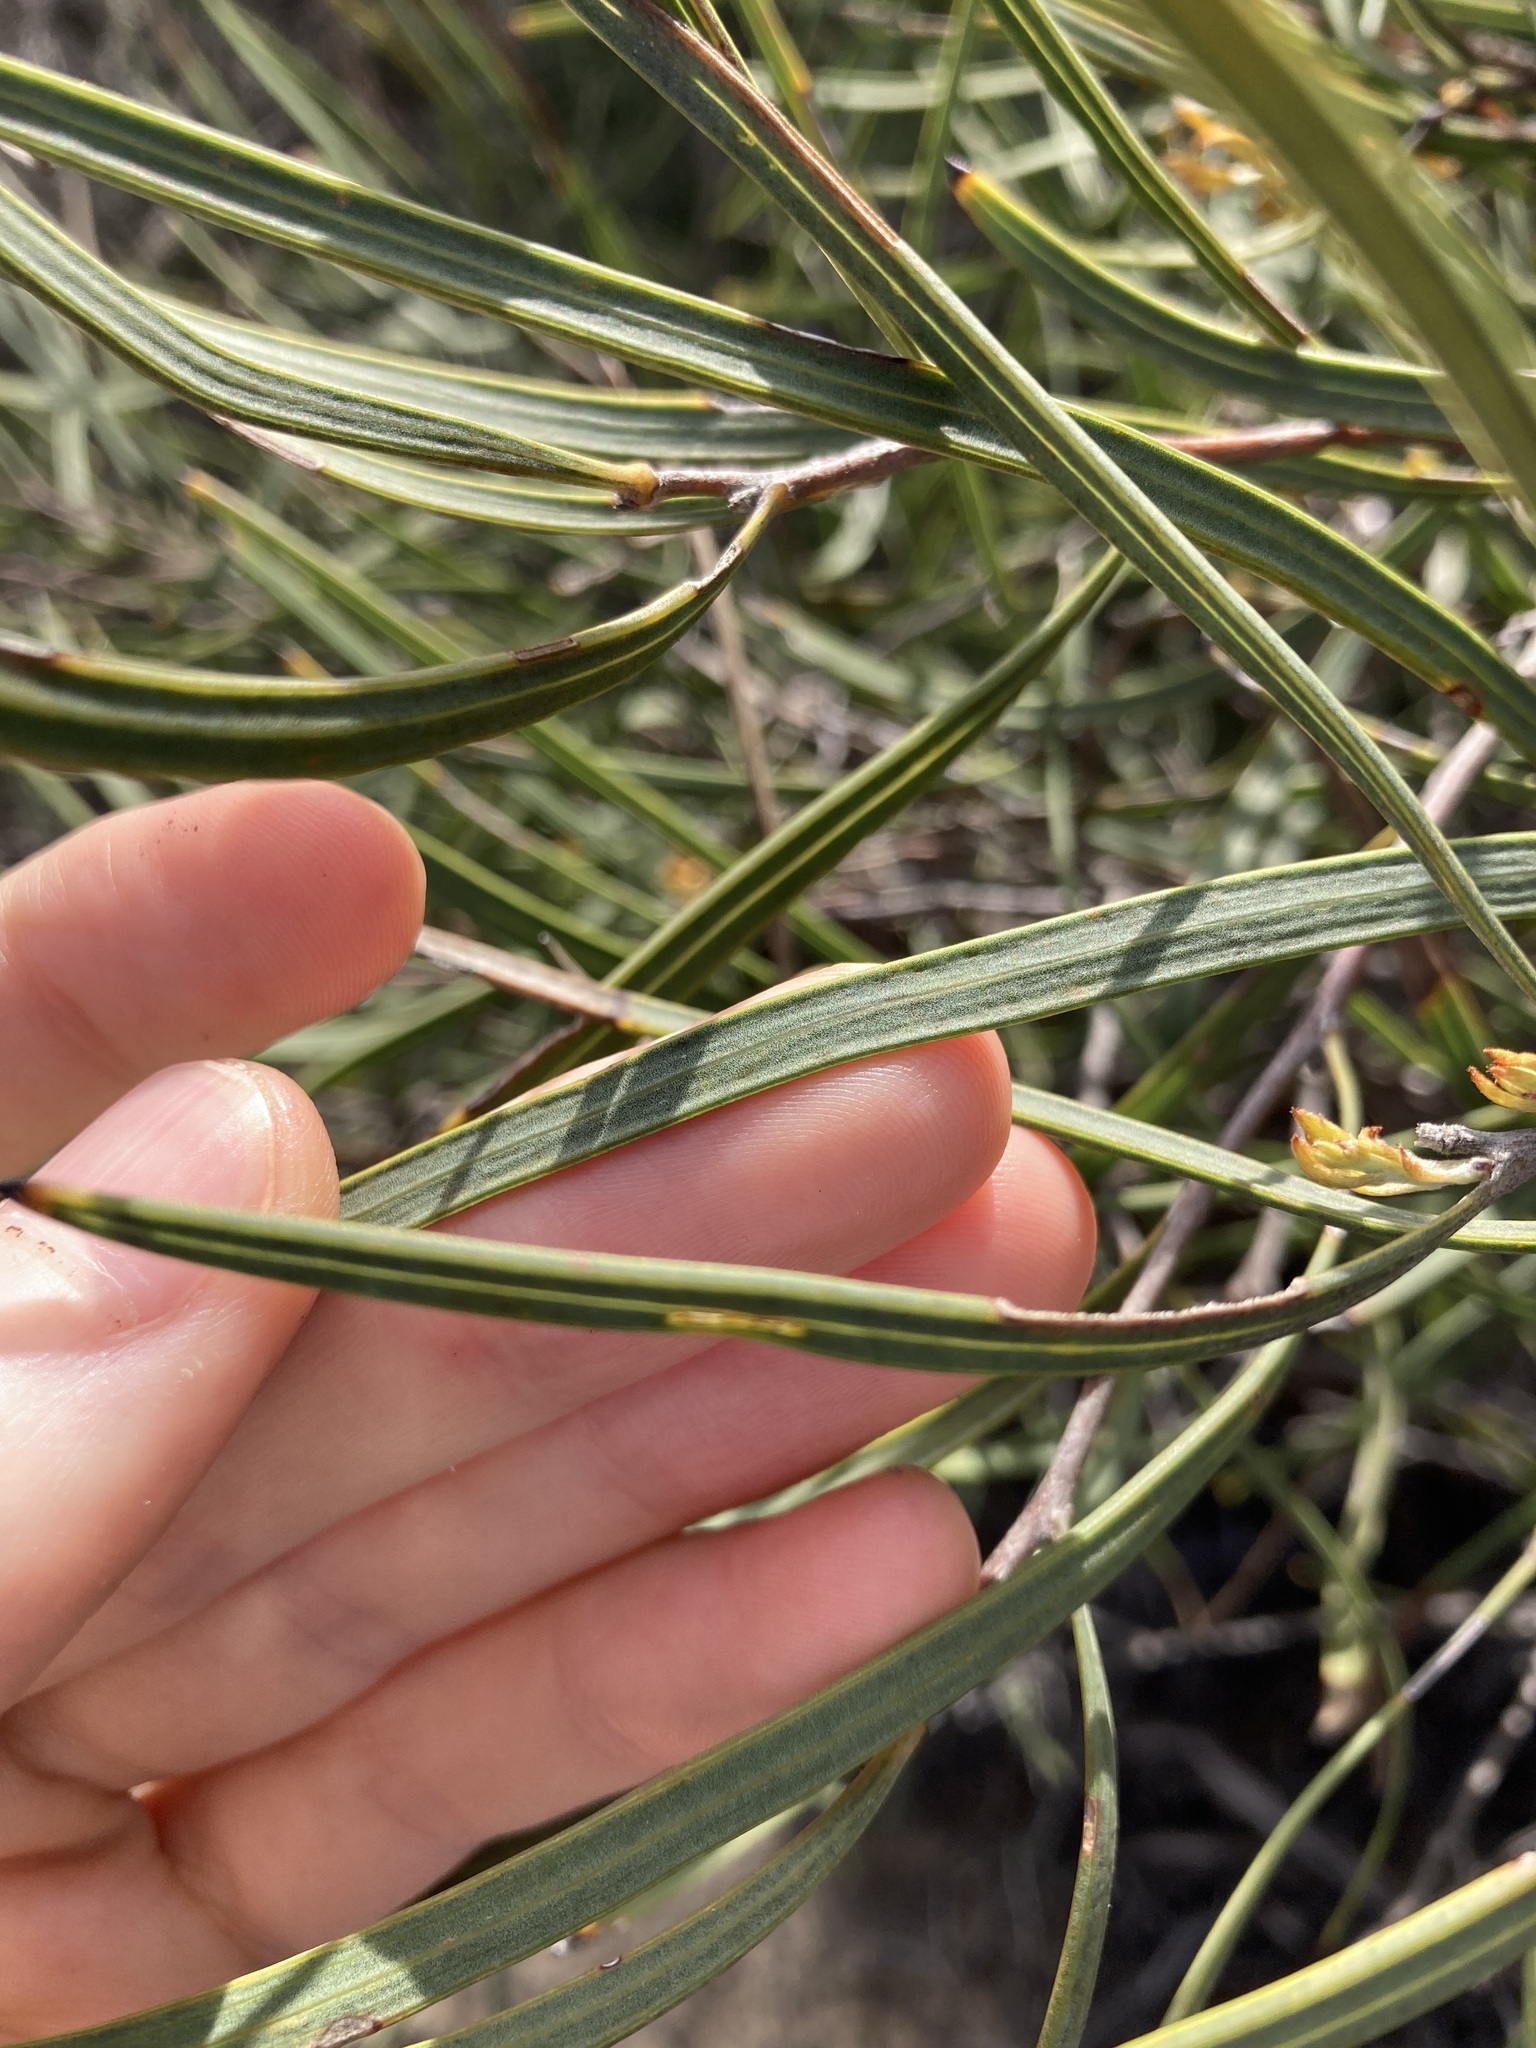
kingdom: Plantae
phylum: Tracheophyta
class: Magnoliopsida
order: Proteales
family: Proteaceae
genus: Hakea
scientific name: Hakea pycnoneura
